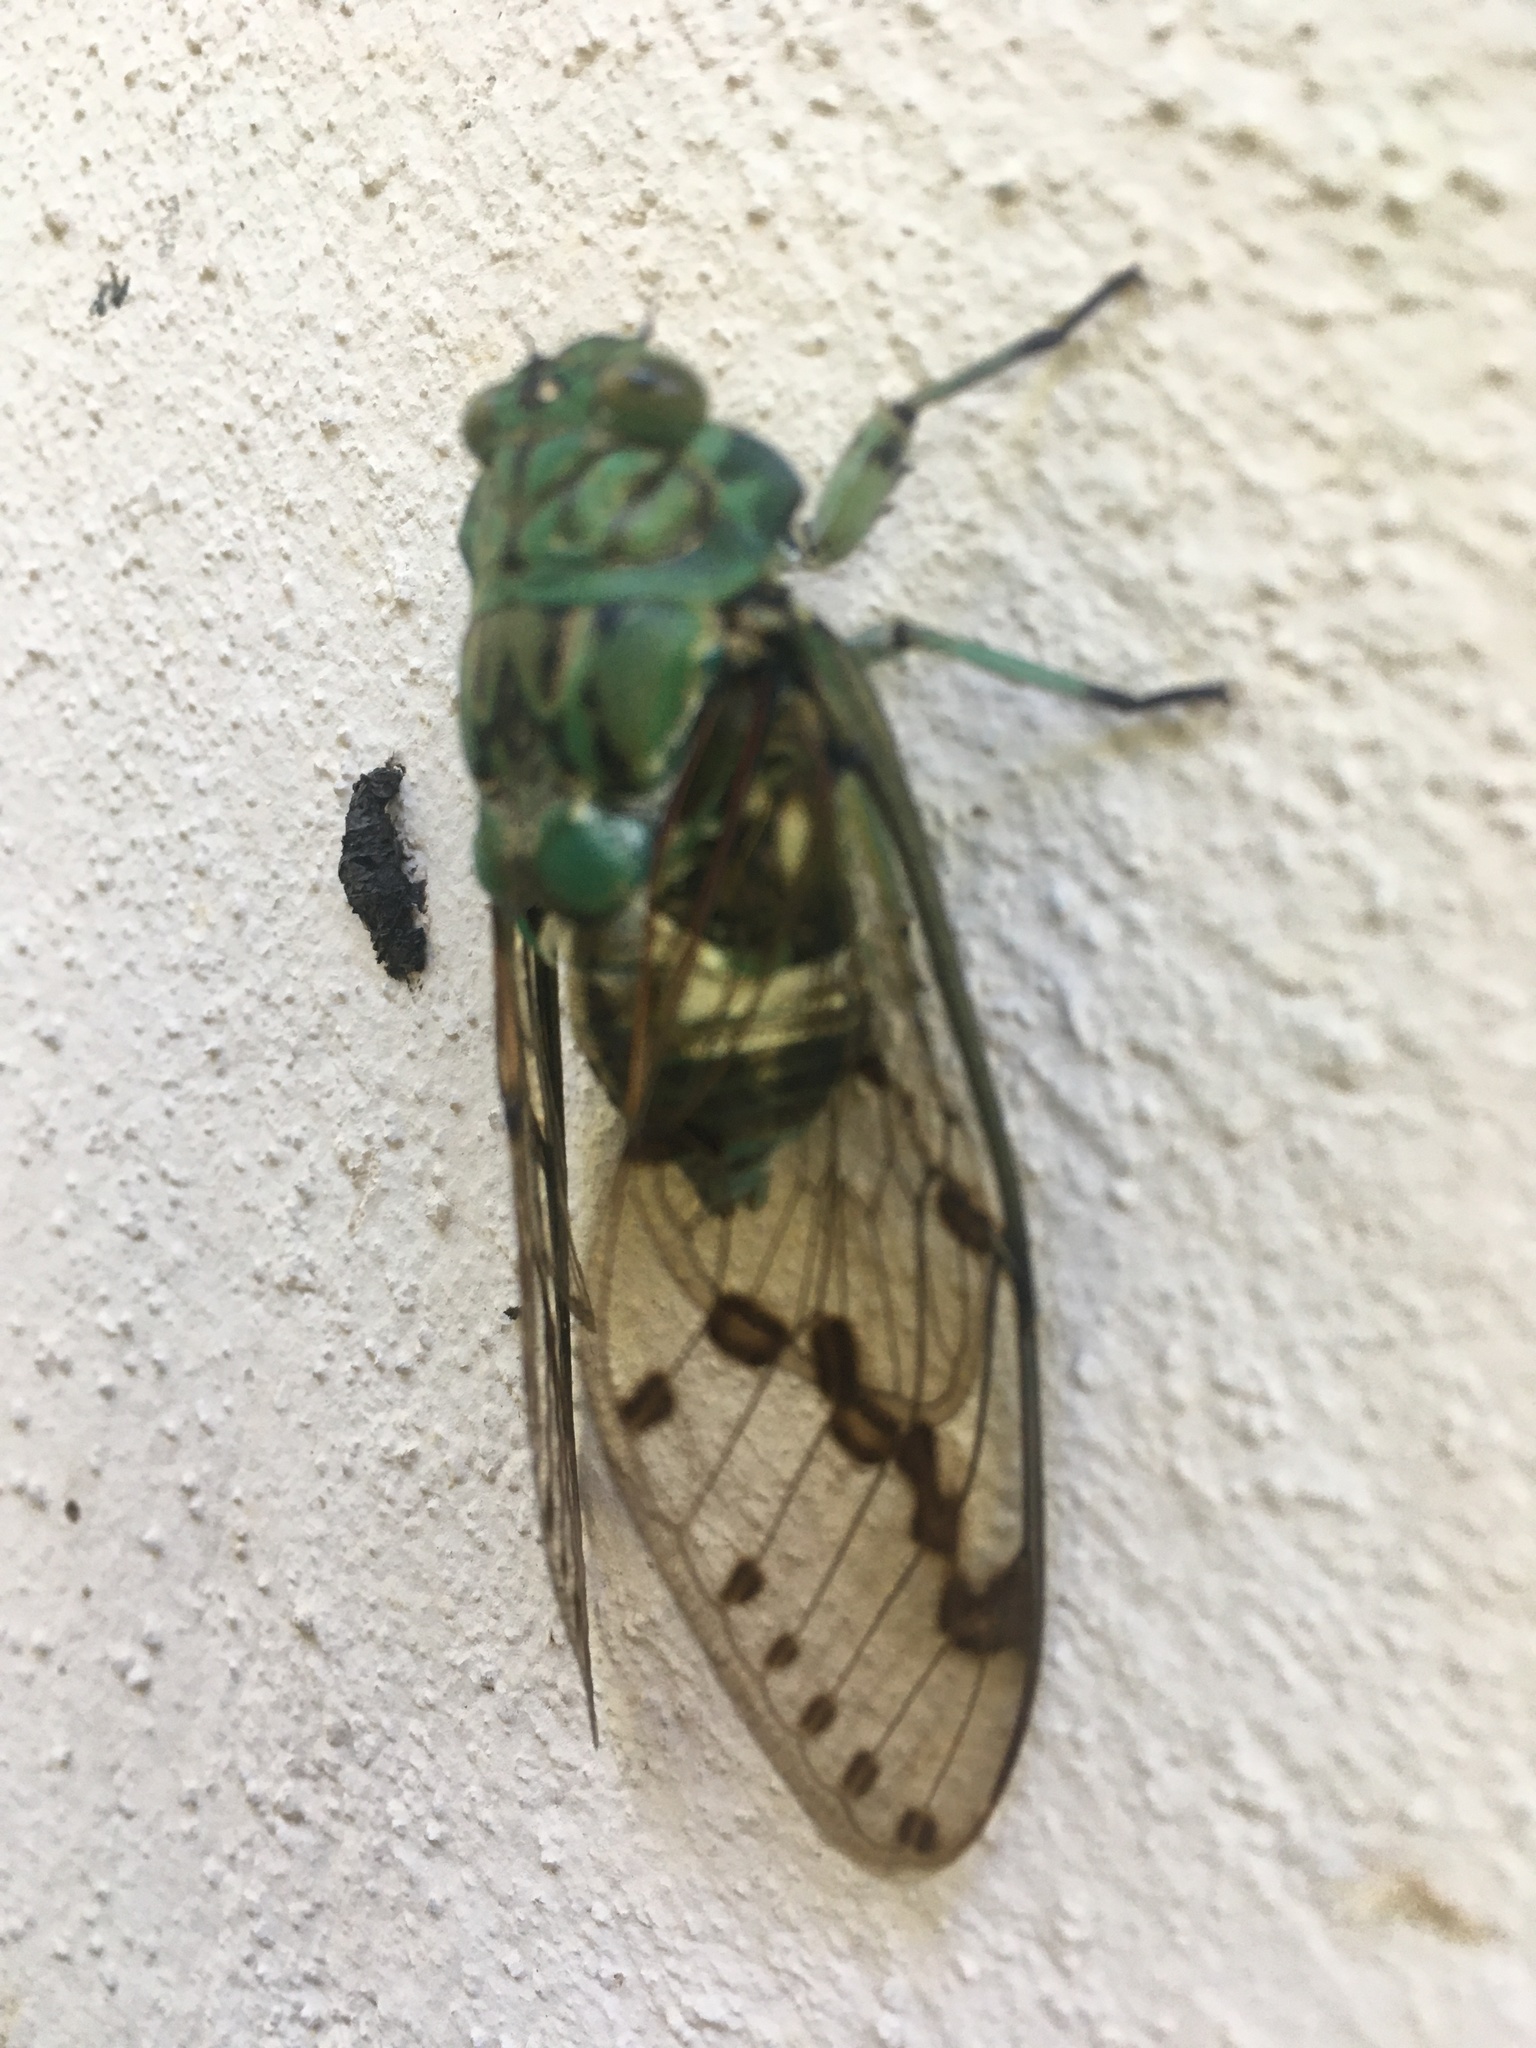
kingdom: Animalia
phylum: Arthropoda
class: Insecta
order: Hemiptera
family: Cicadidae
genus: Zammara
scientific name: Zammara tympanum
